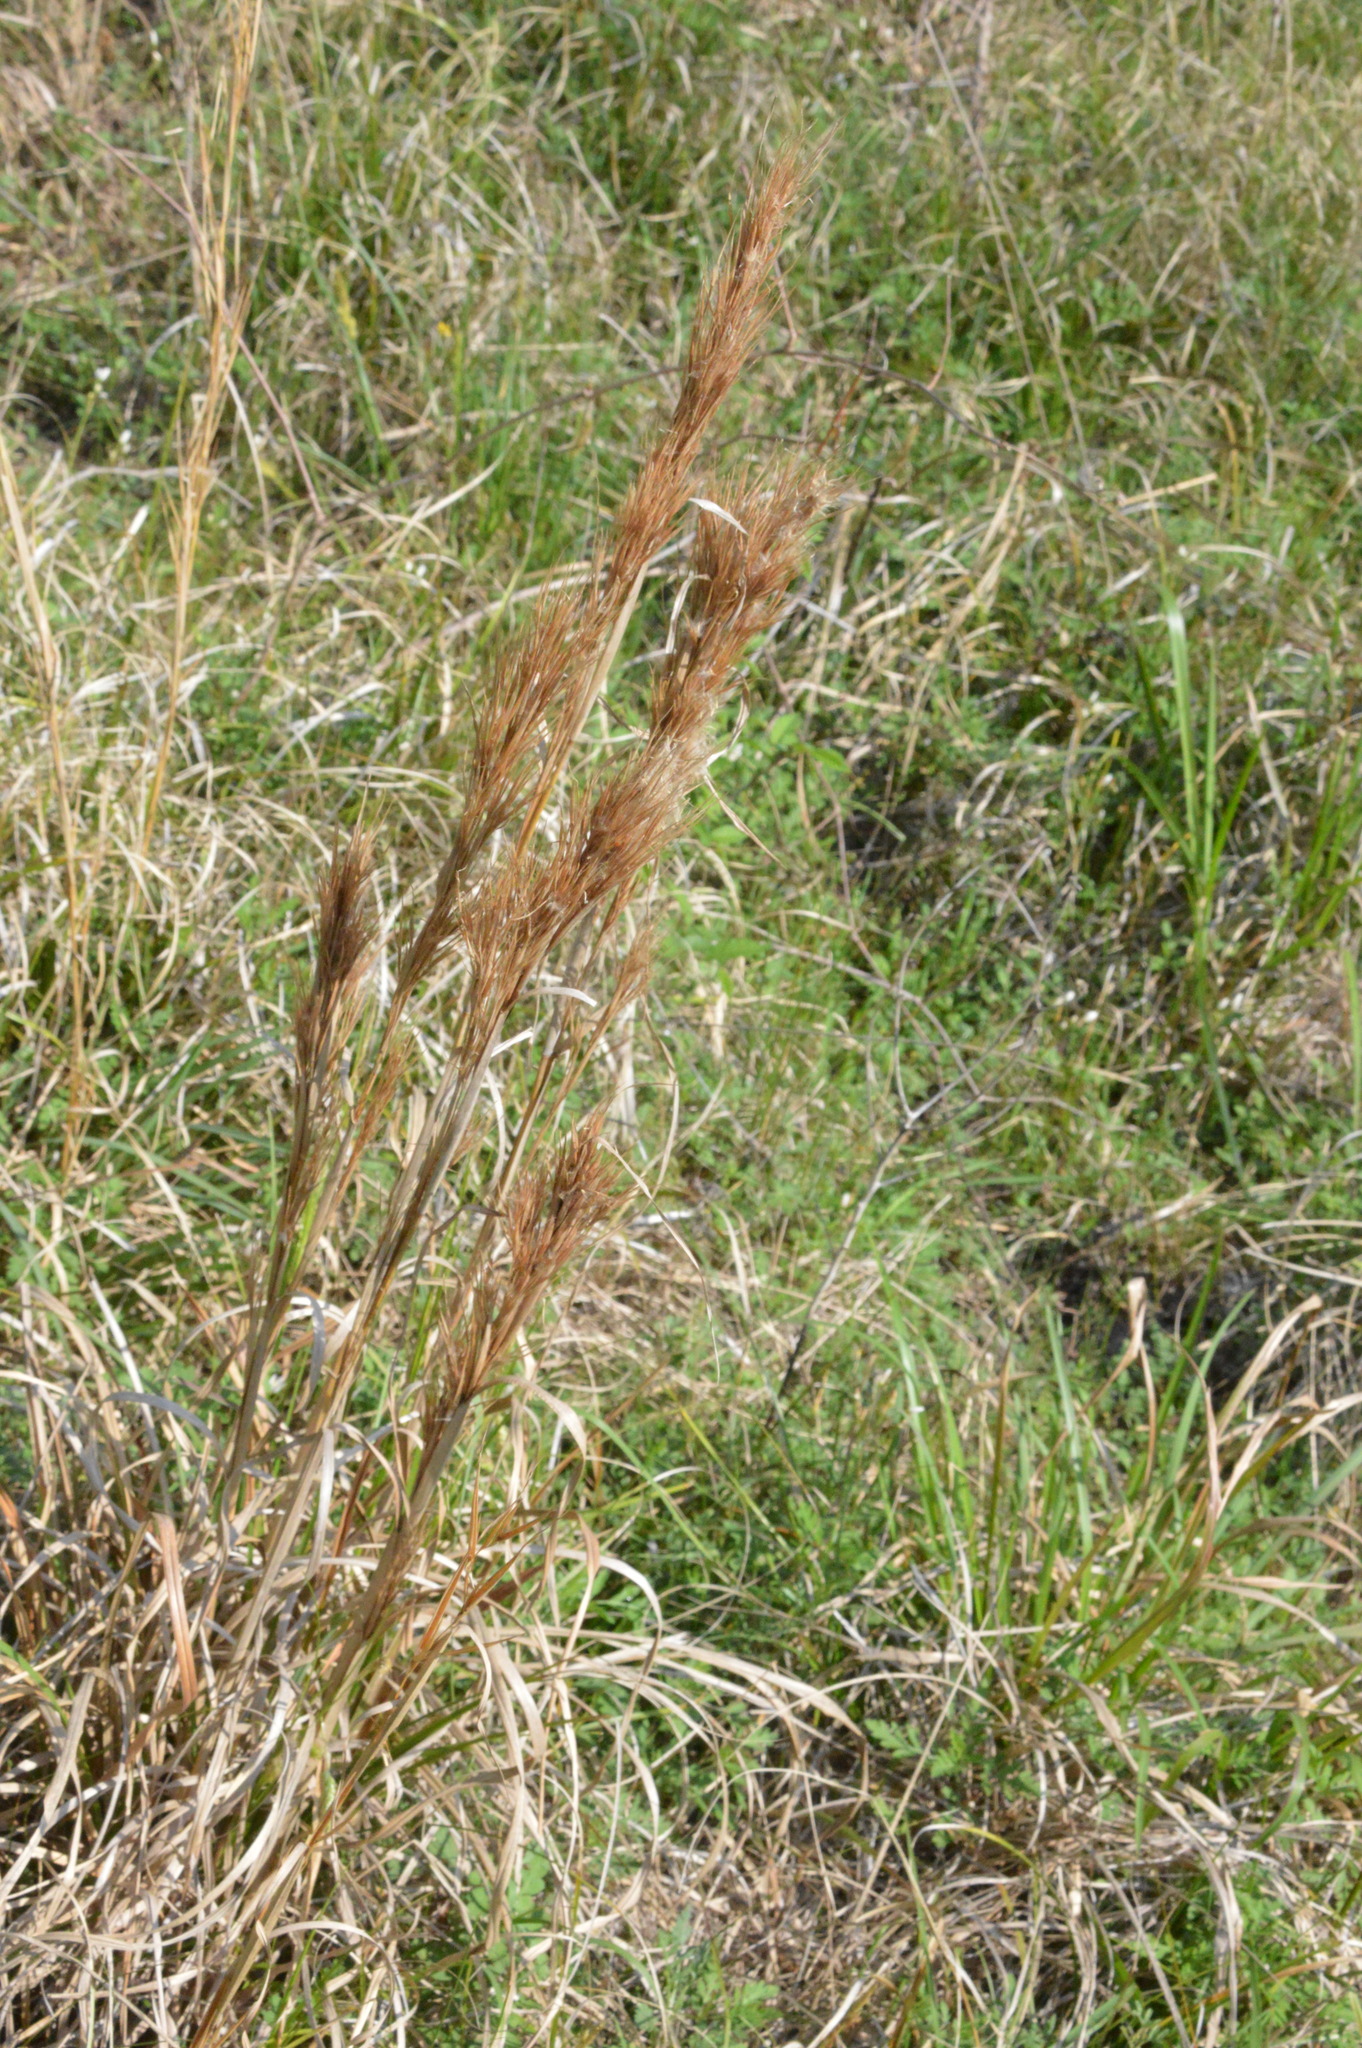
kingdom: Plantae
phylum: Tracheophyta
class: Liliopsida
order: Poales
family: Poaceae
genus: Andropogon
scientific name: Andropogon tenuispatheus
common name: Bushy bluestem
